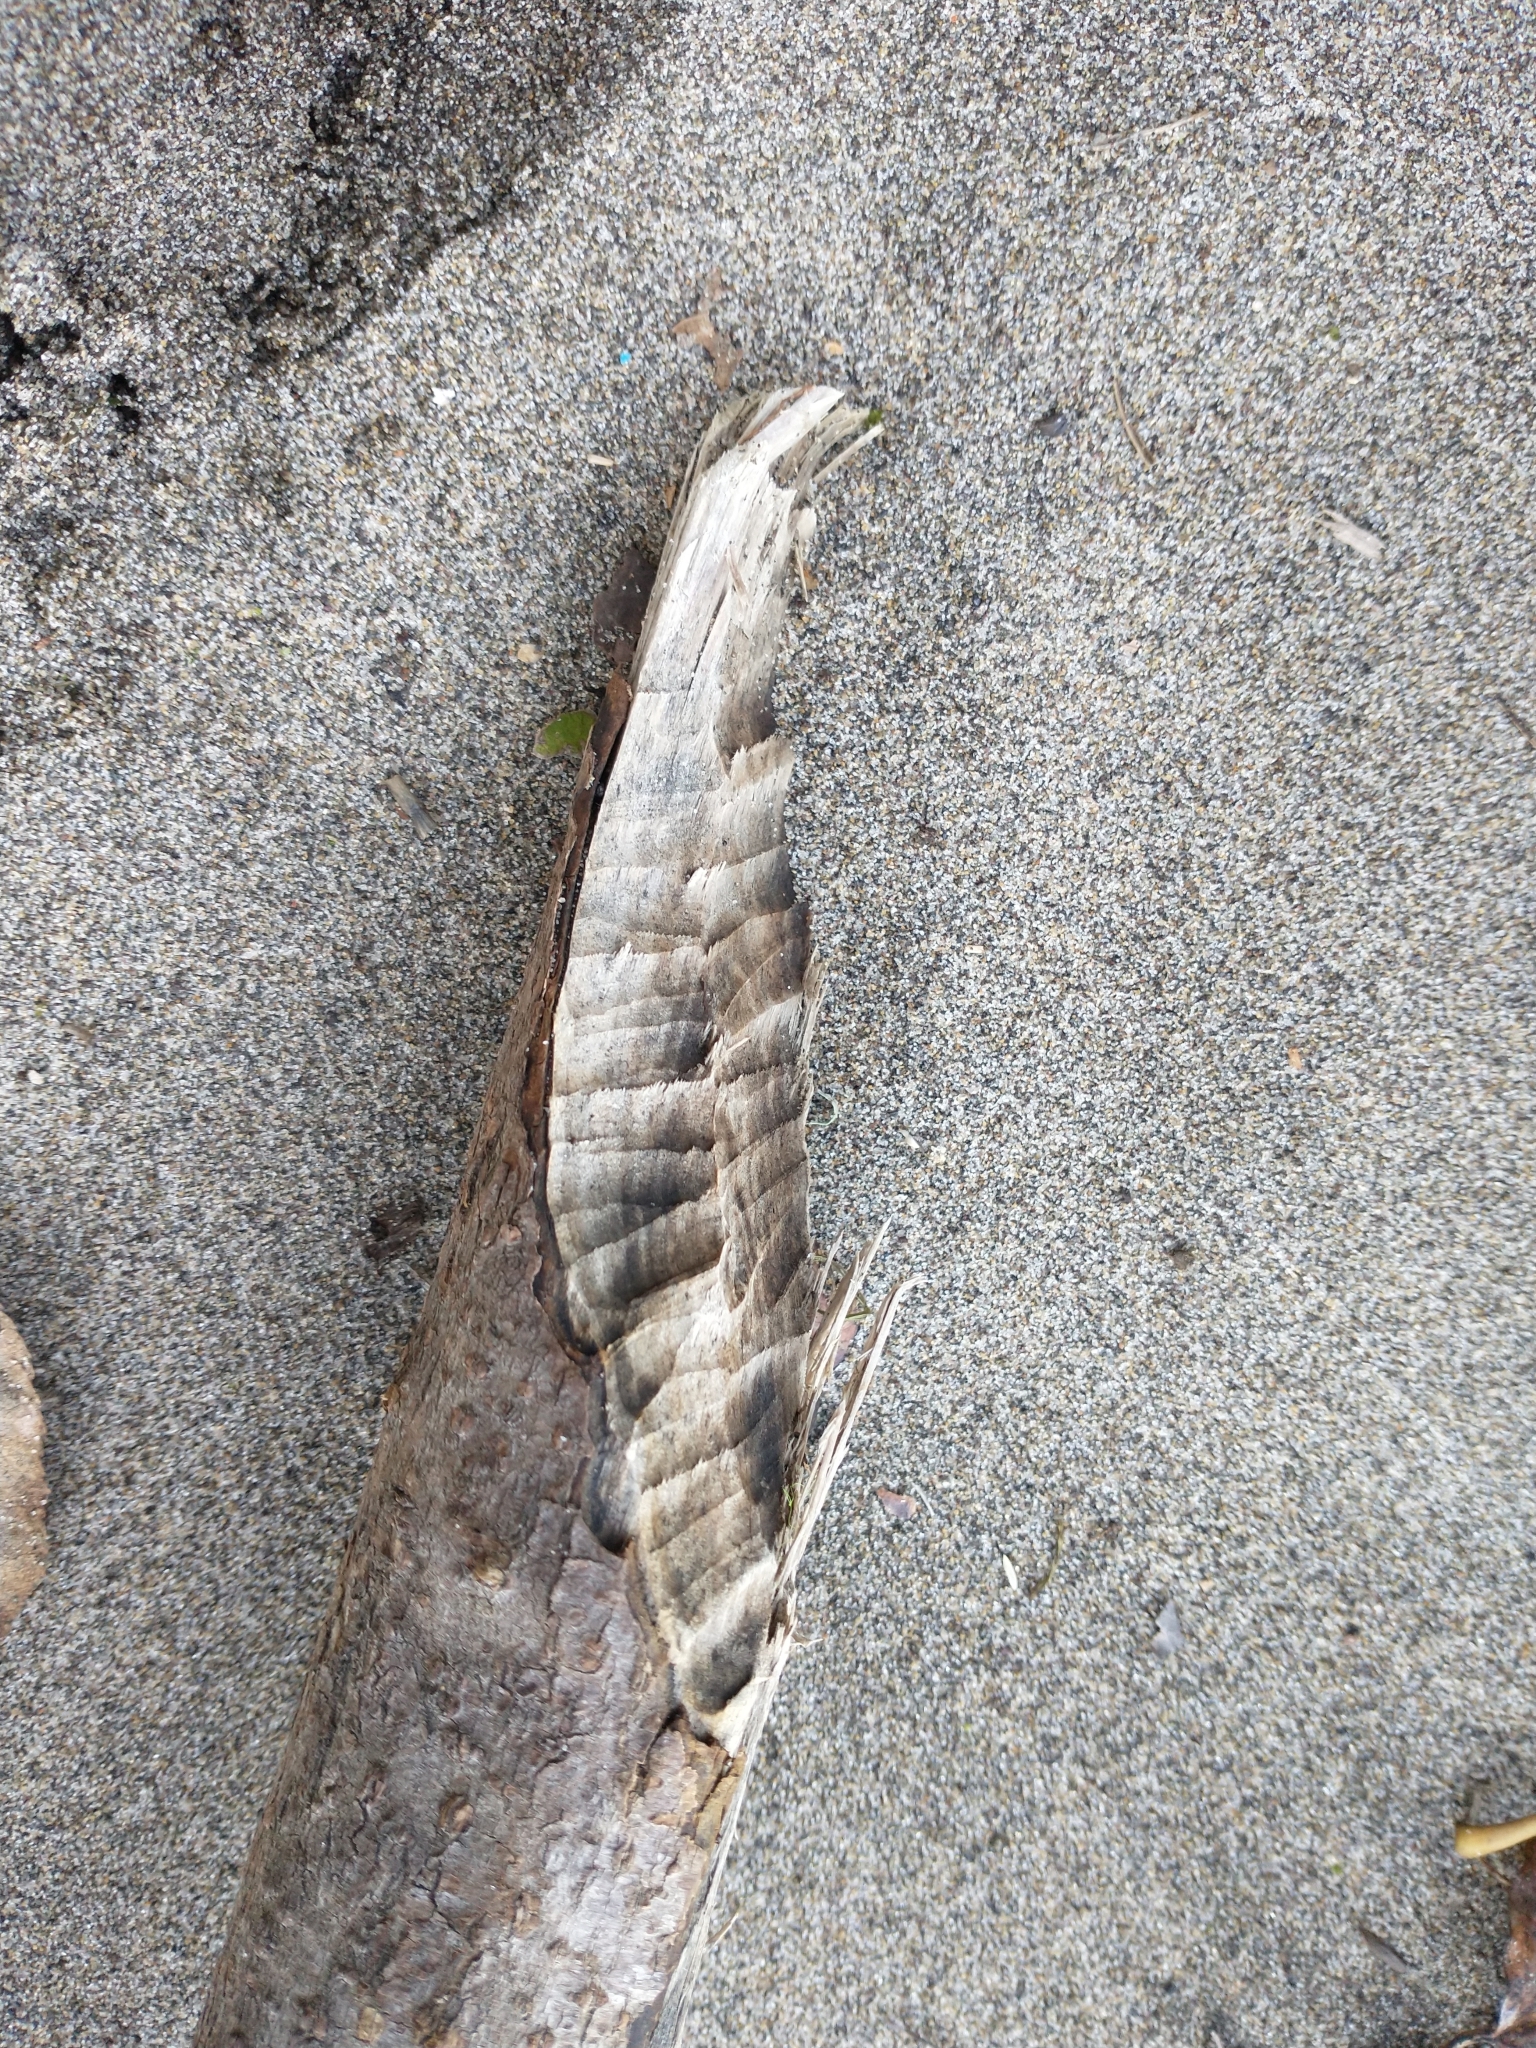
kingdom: Animalia
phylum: Chordata
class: Mammalia
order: Rodentia
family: Castoridae
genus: Castor
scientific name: Castor canadensis
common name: American beaver
